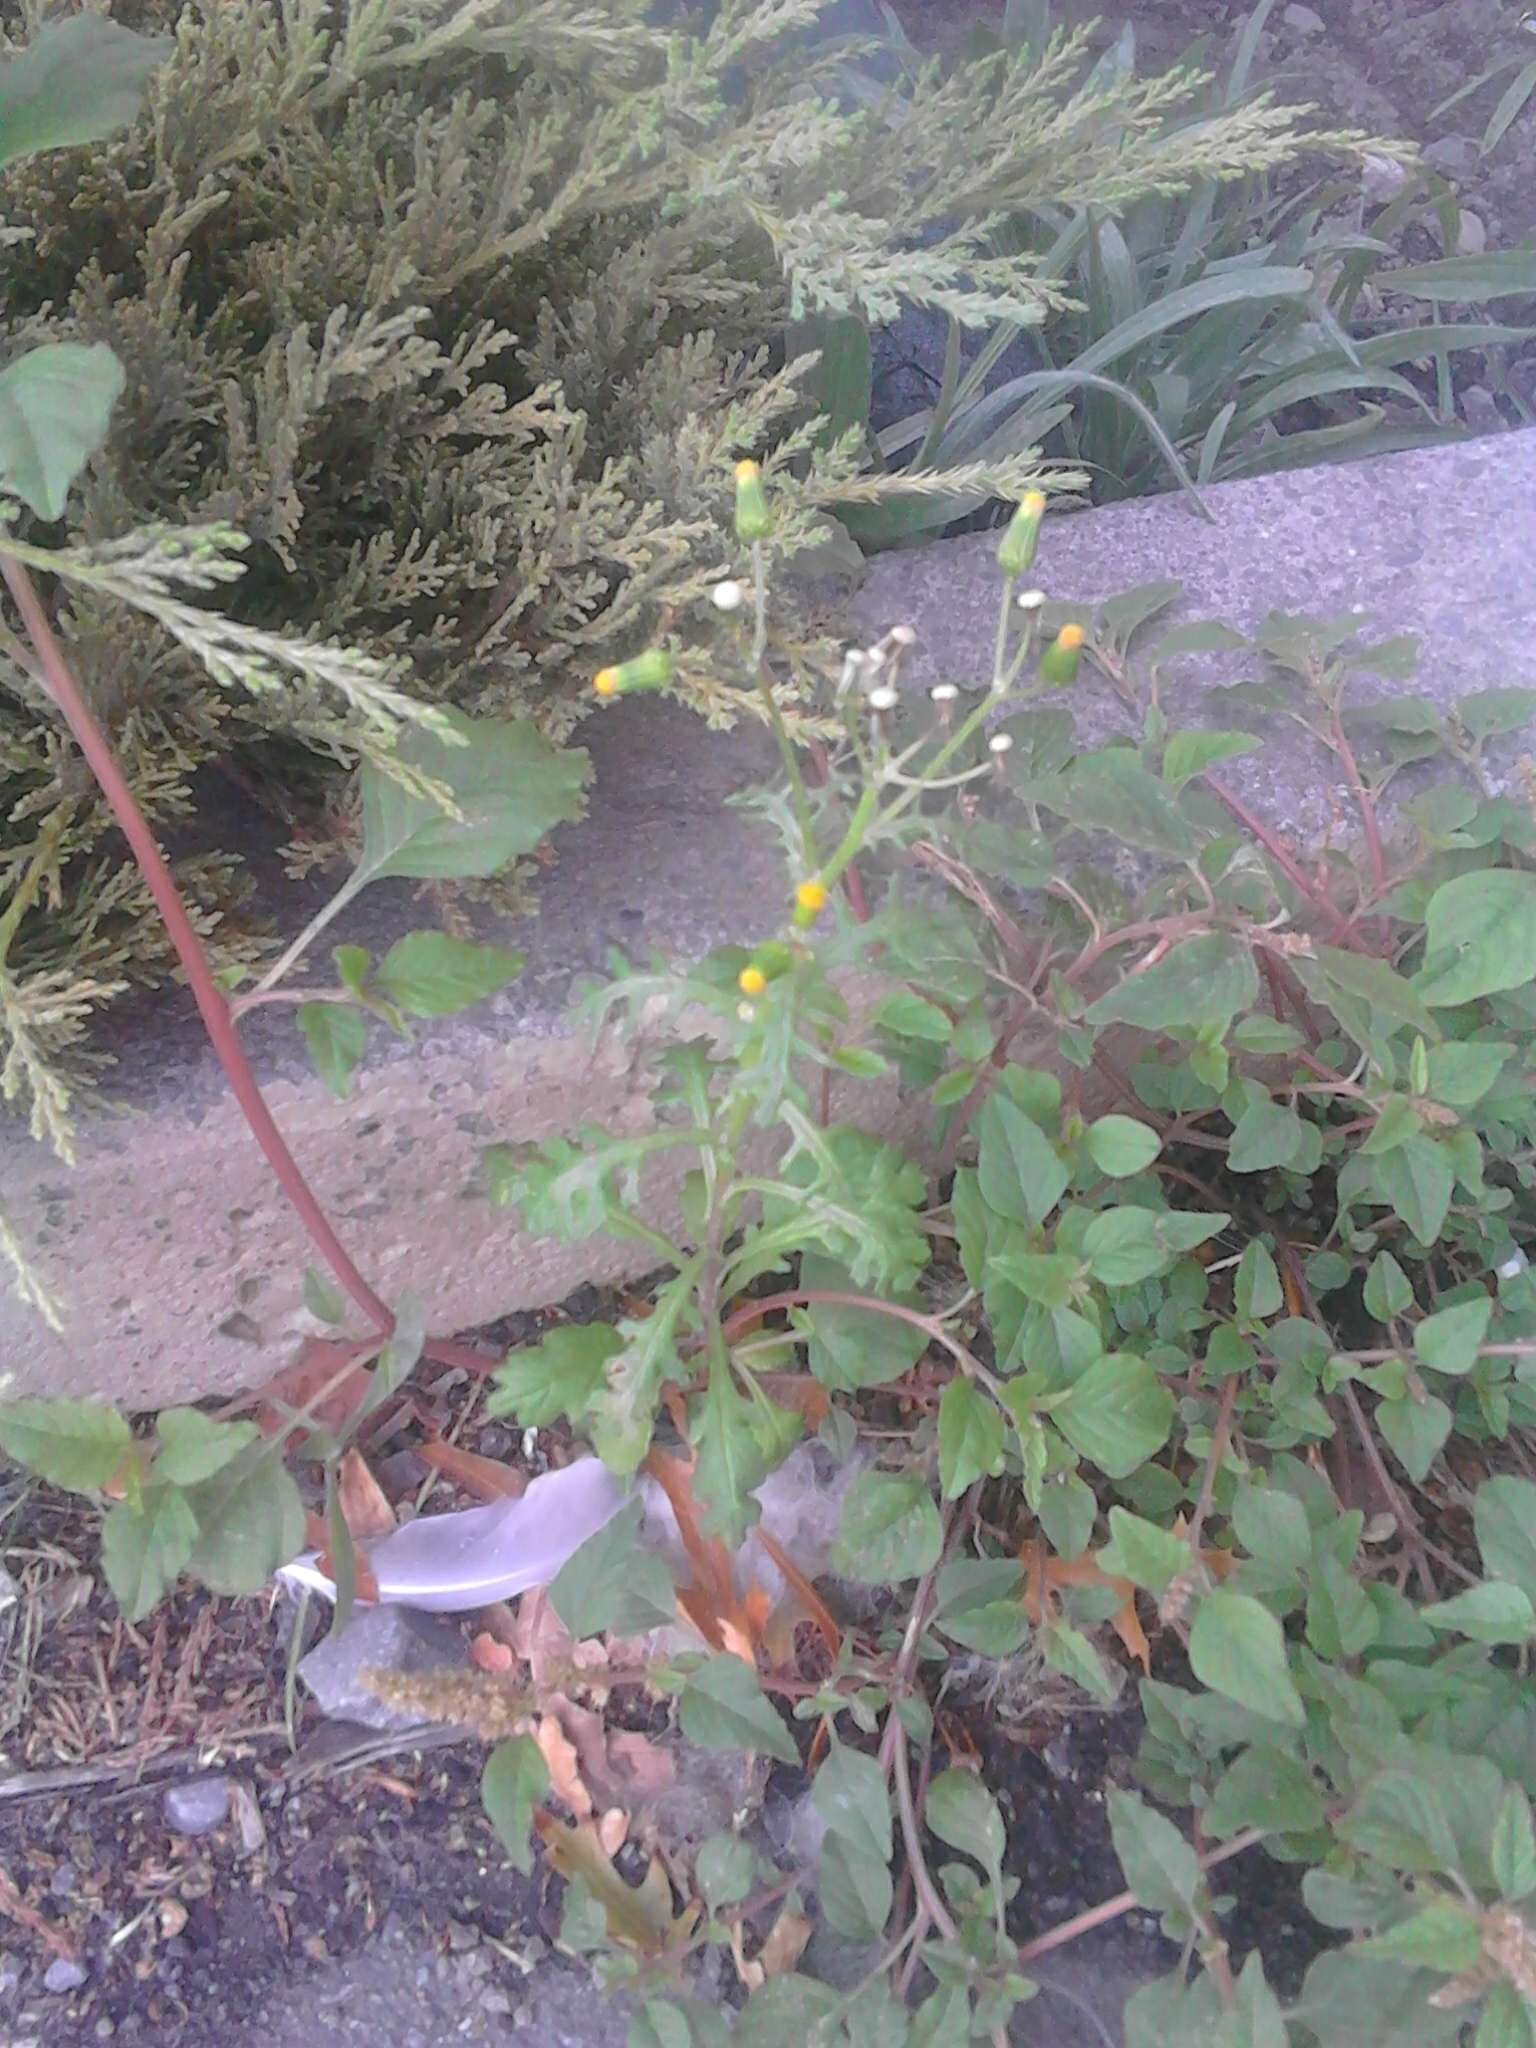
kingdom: Plantae
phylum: Tracheophyta
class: Magnoliopsida
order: Asterales
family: Asteraceae
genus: Senecio
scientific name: Senecio vulgaris
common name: Old-man-in-the-spring
